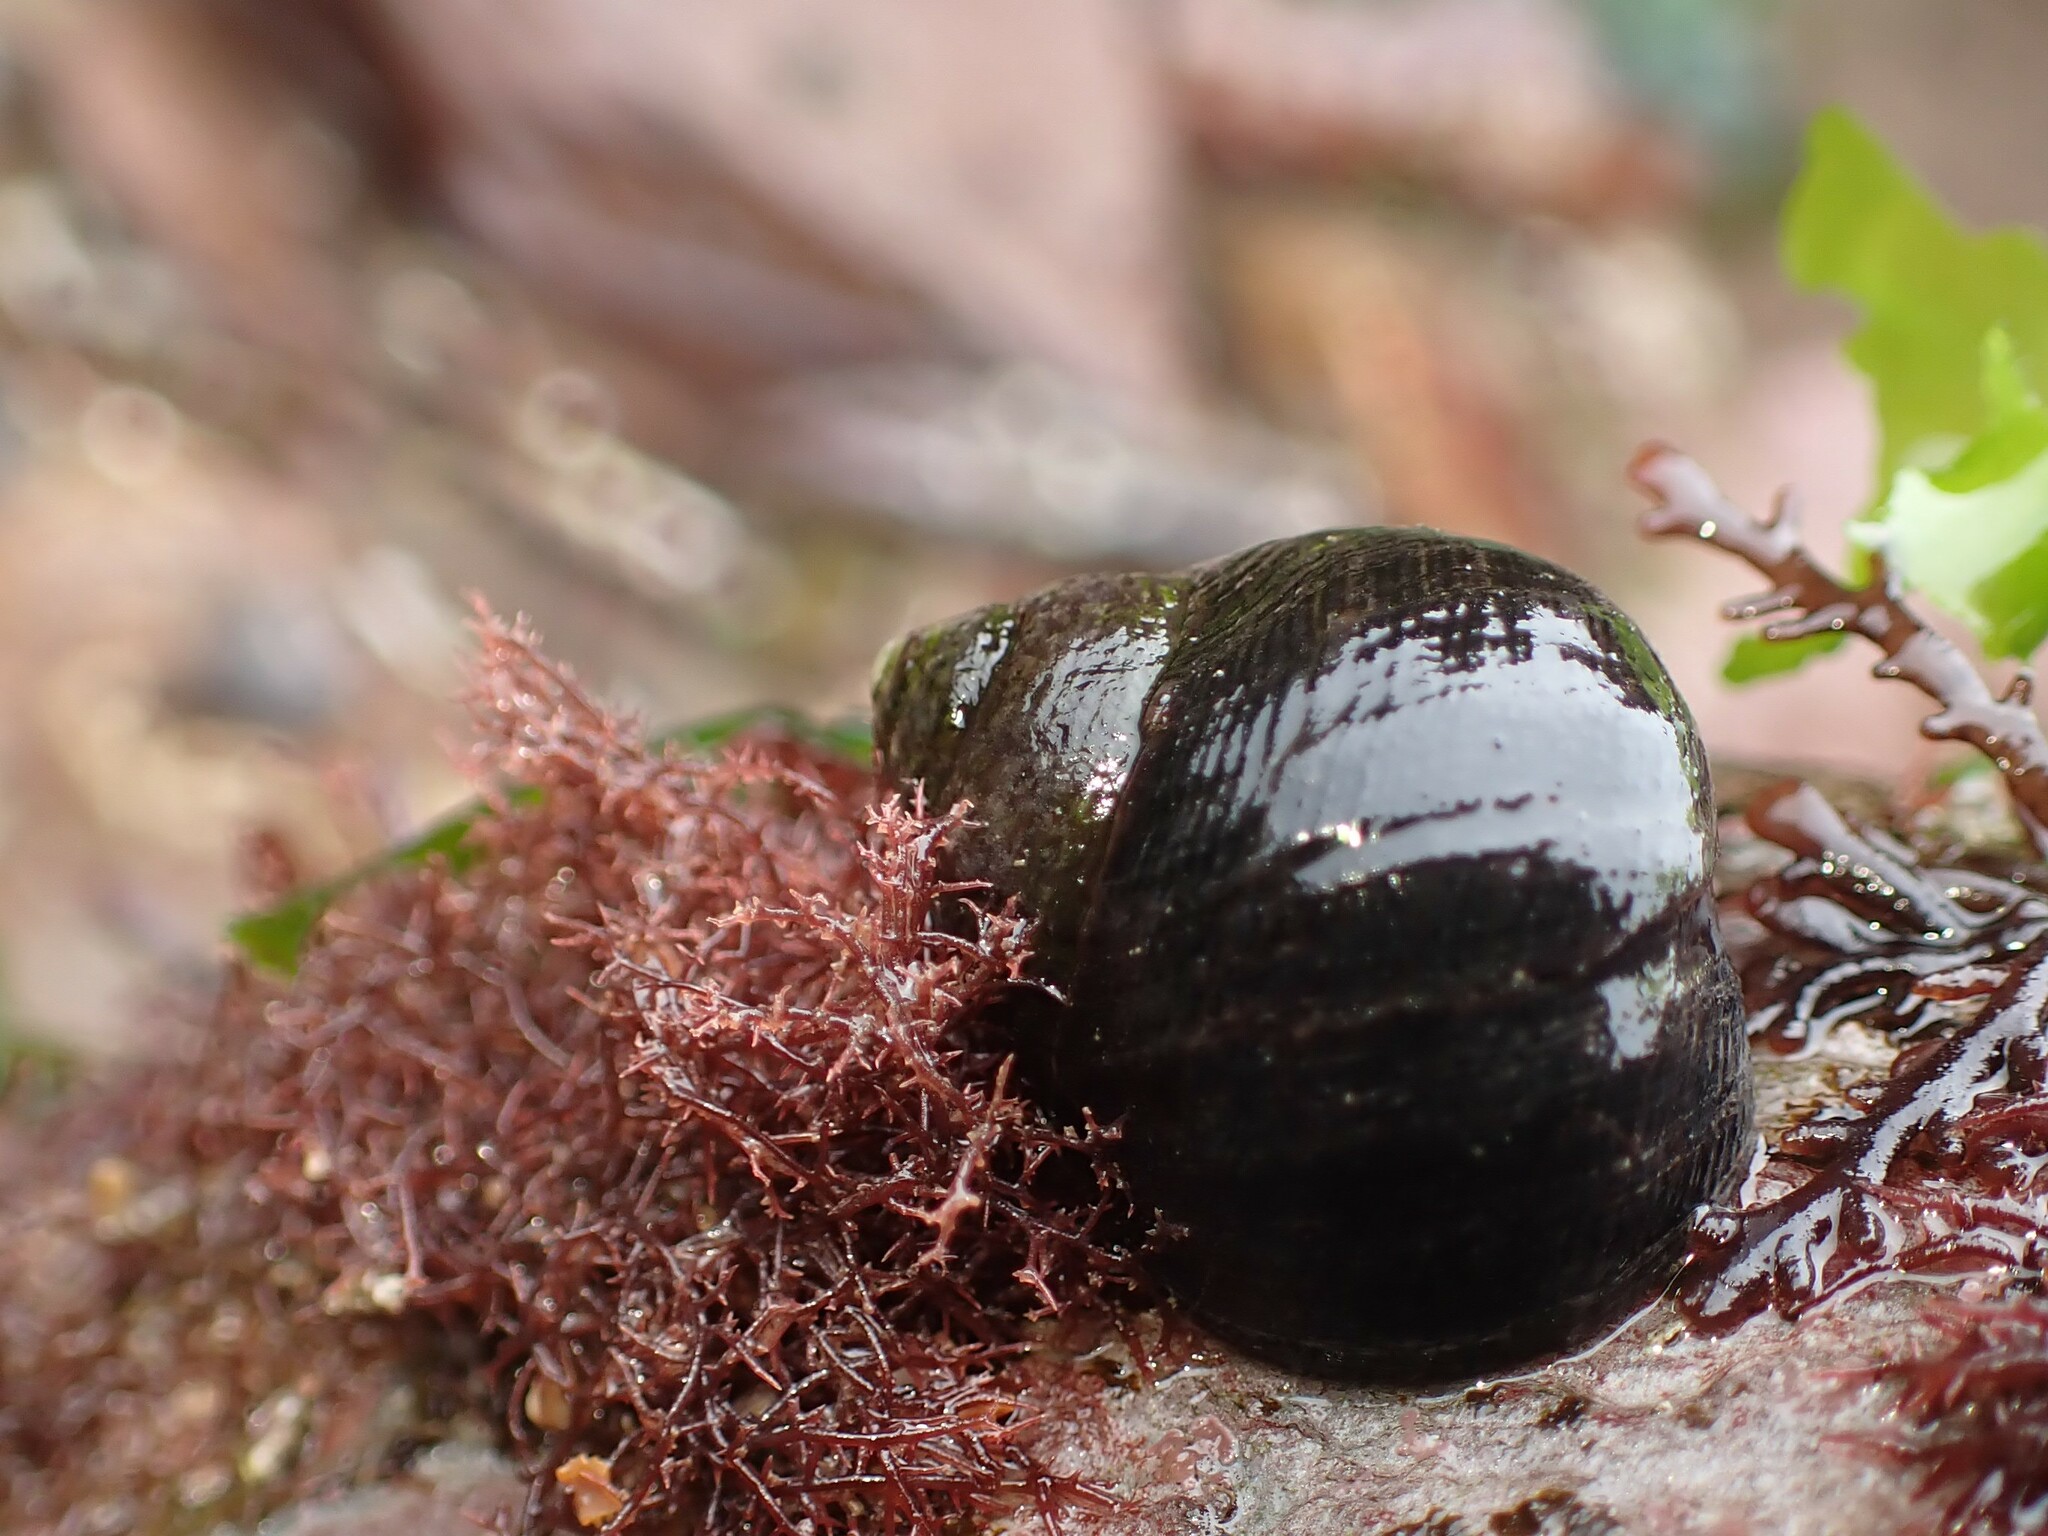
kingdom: Animalia
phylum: Mollusca
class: Gastropoda
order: Littorinimorpha
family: Littorinidae
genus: Littorina
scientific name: Littorina littorea
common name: Common periwinkle
